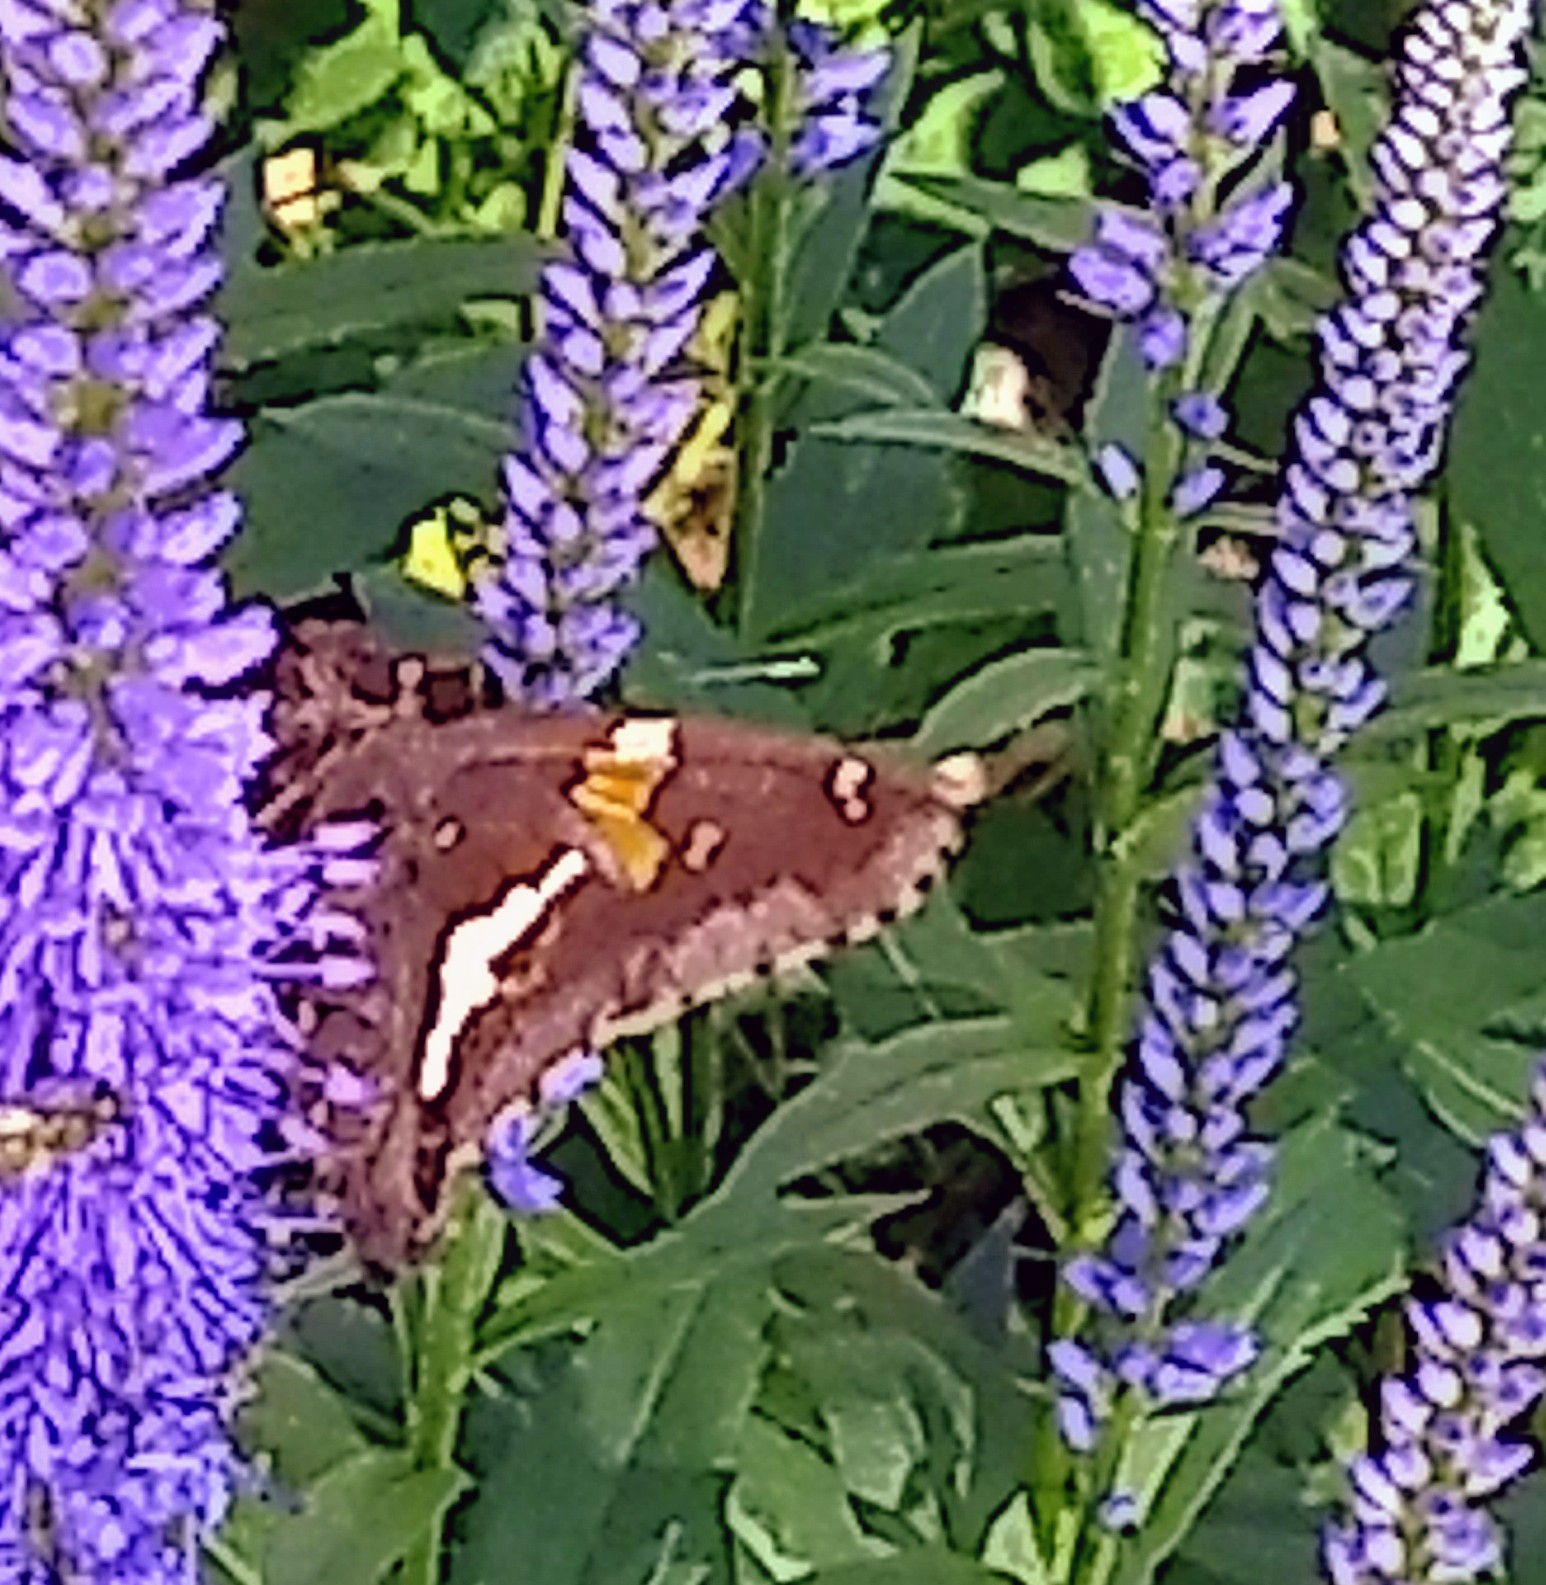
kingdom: Animalia
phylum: Arthropoda
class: Insecta
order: Lepidoptera
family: Hesperiidae
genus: Epargyreus
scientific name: Epargyreus clarus
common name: Silver-spotted skipper
